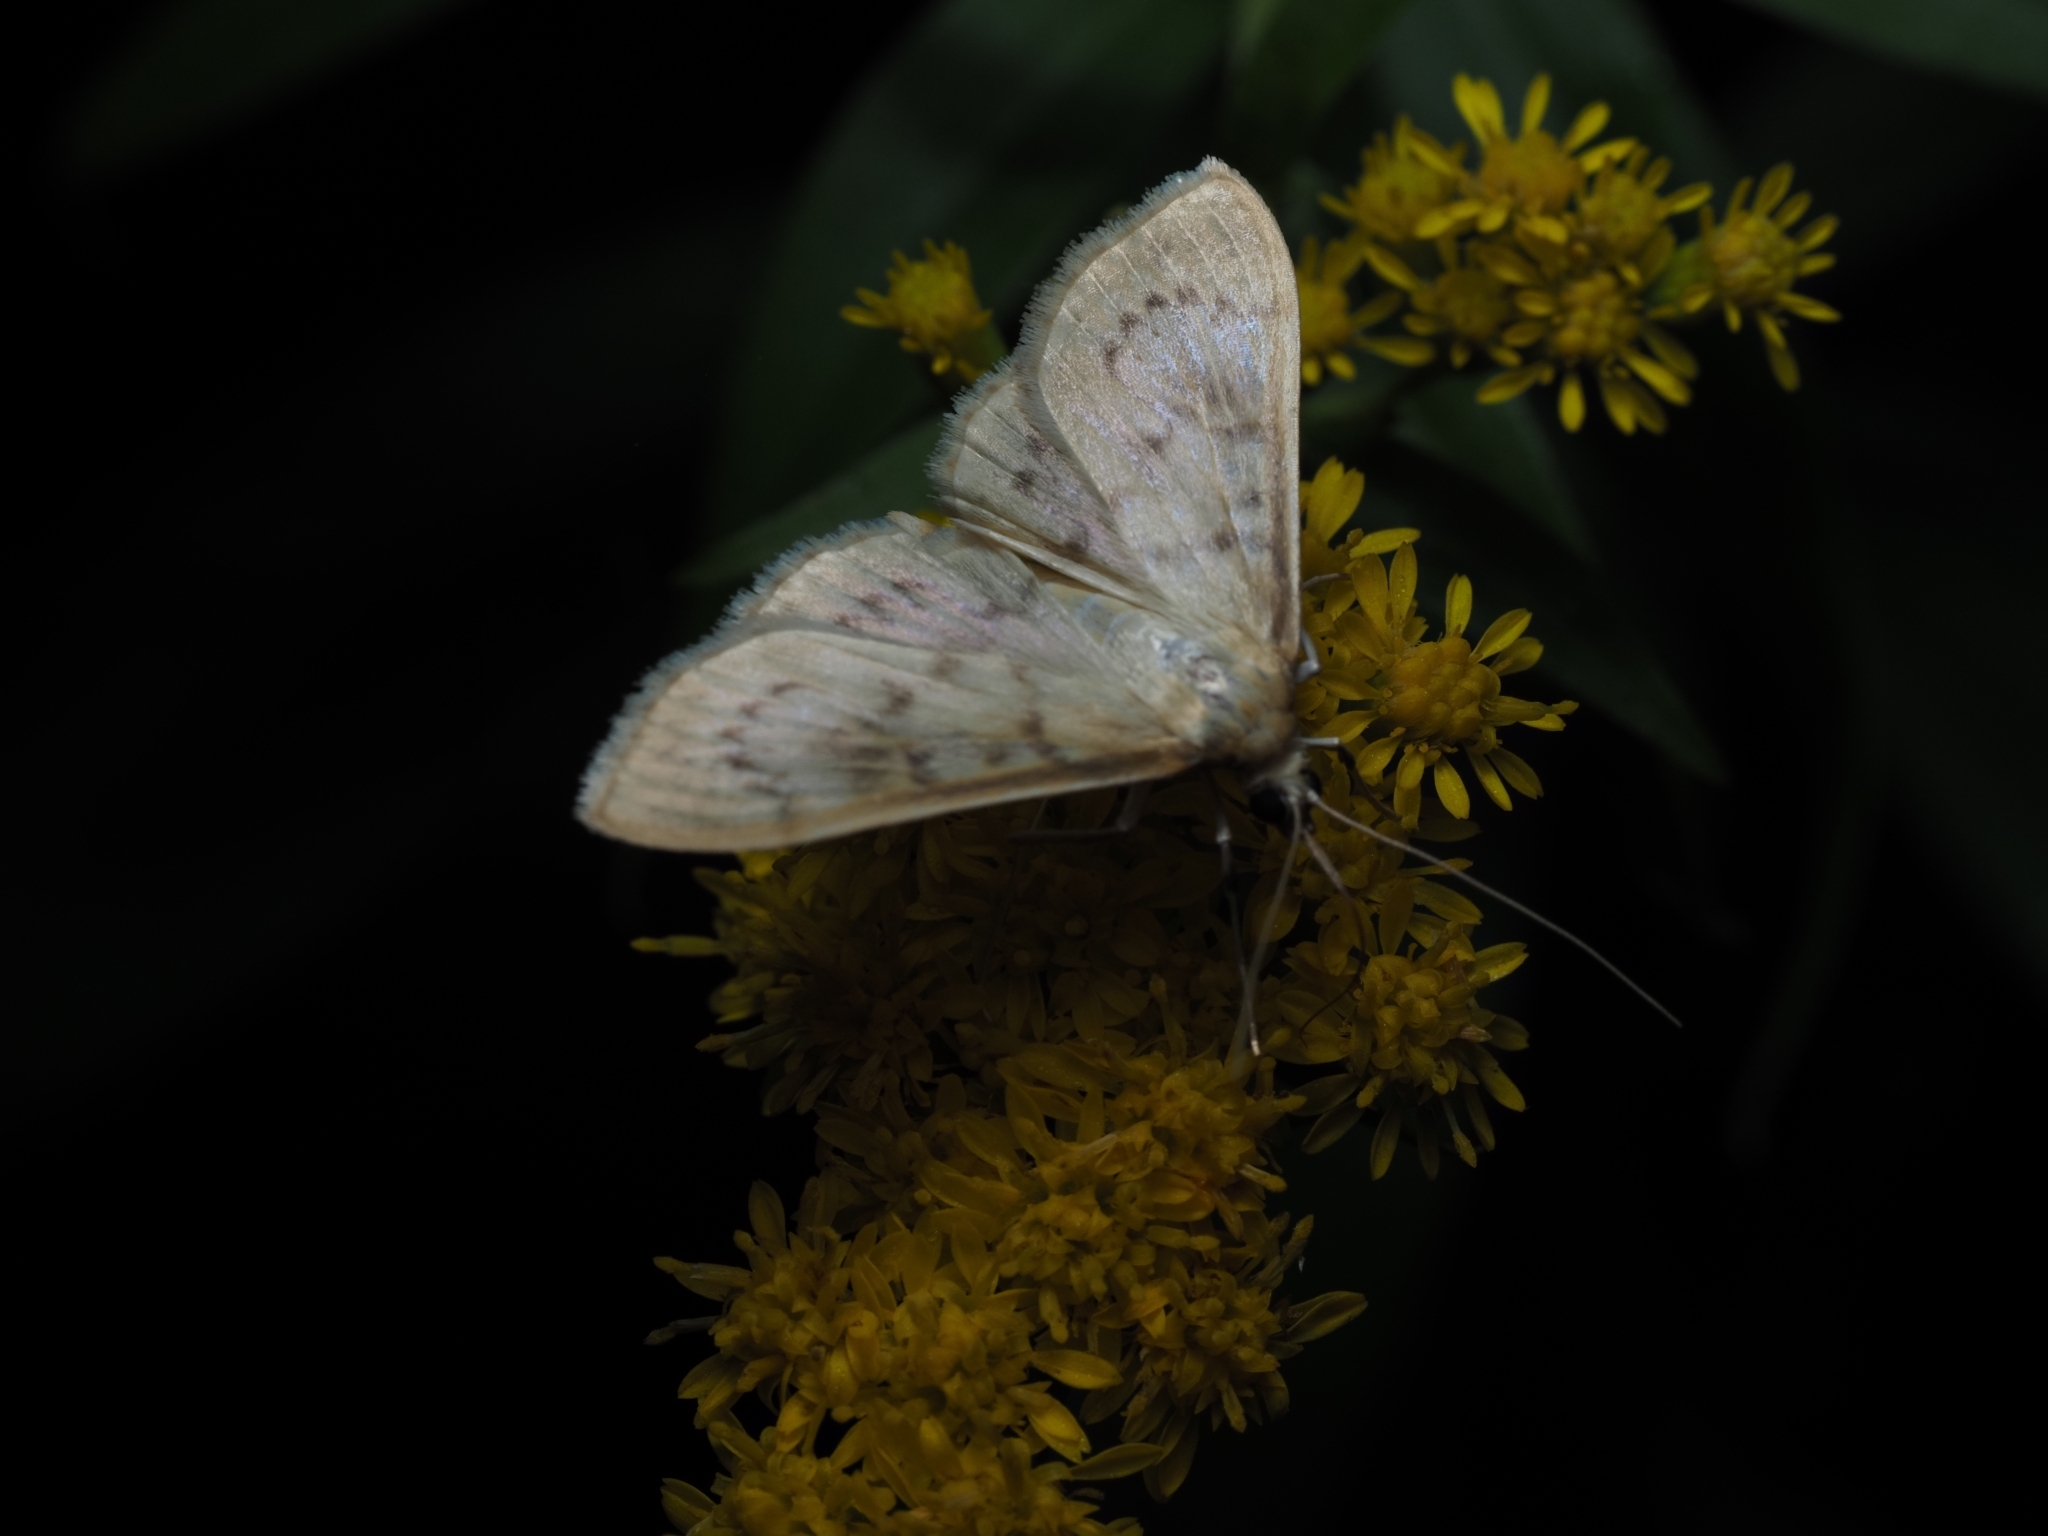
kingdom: Animalia
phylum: Arthropoda
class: Insecta
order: Lepidoptera
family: Crambidae
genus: Patania
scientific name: Patania ruralis
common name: Mother of pearl
